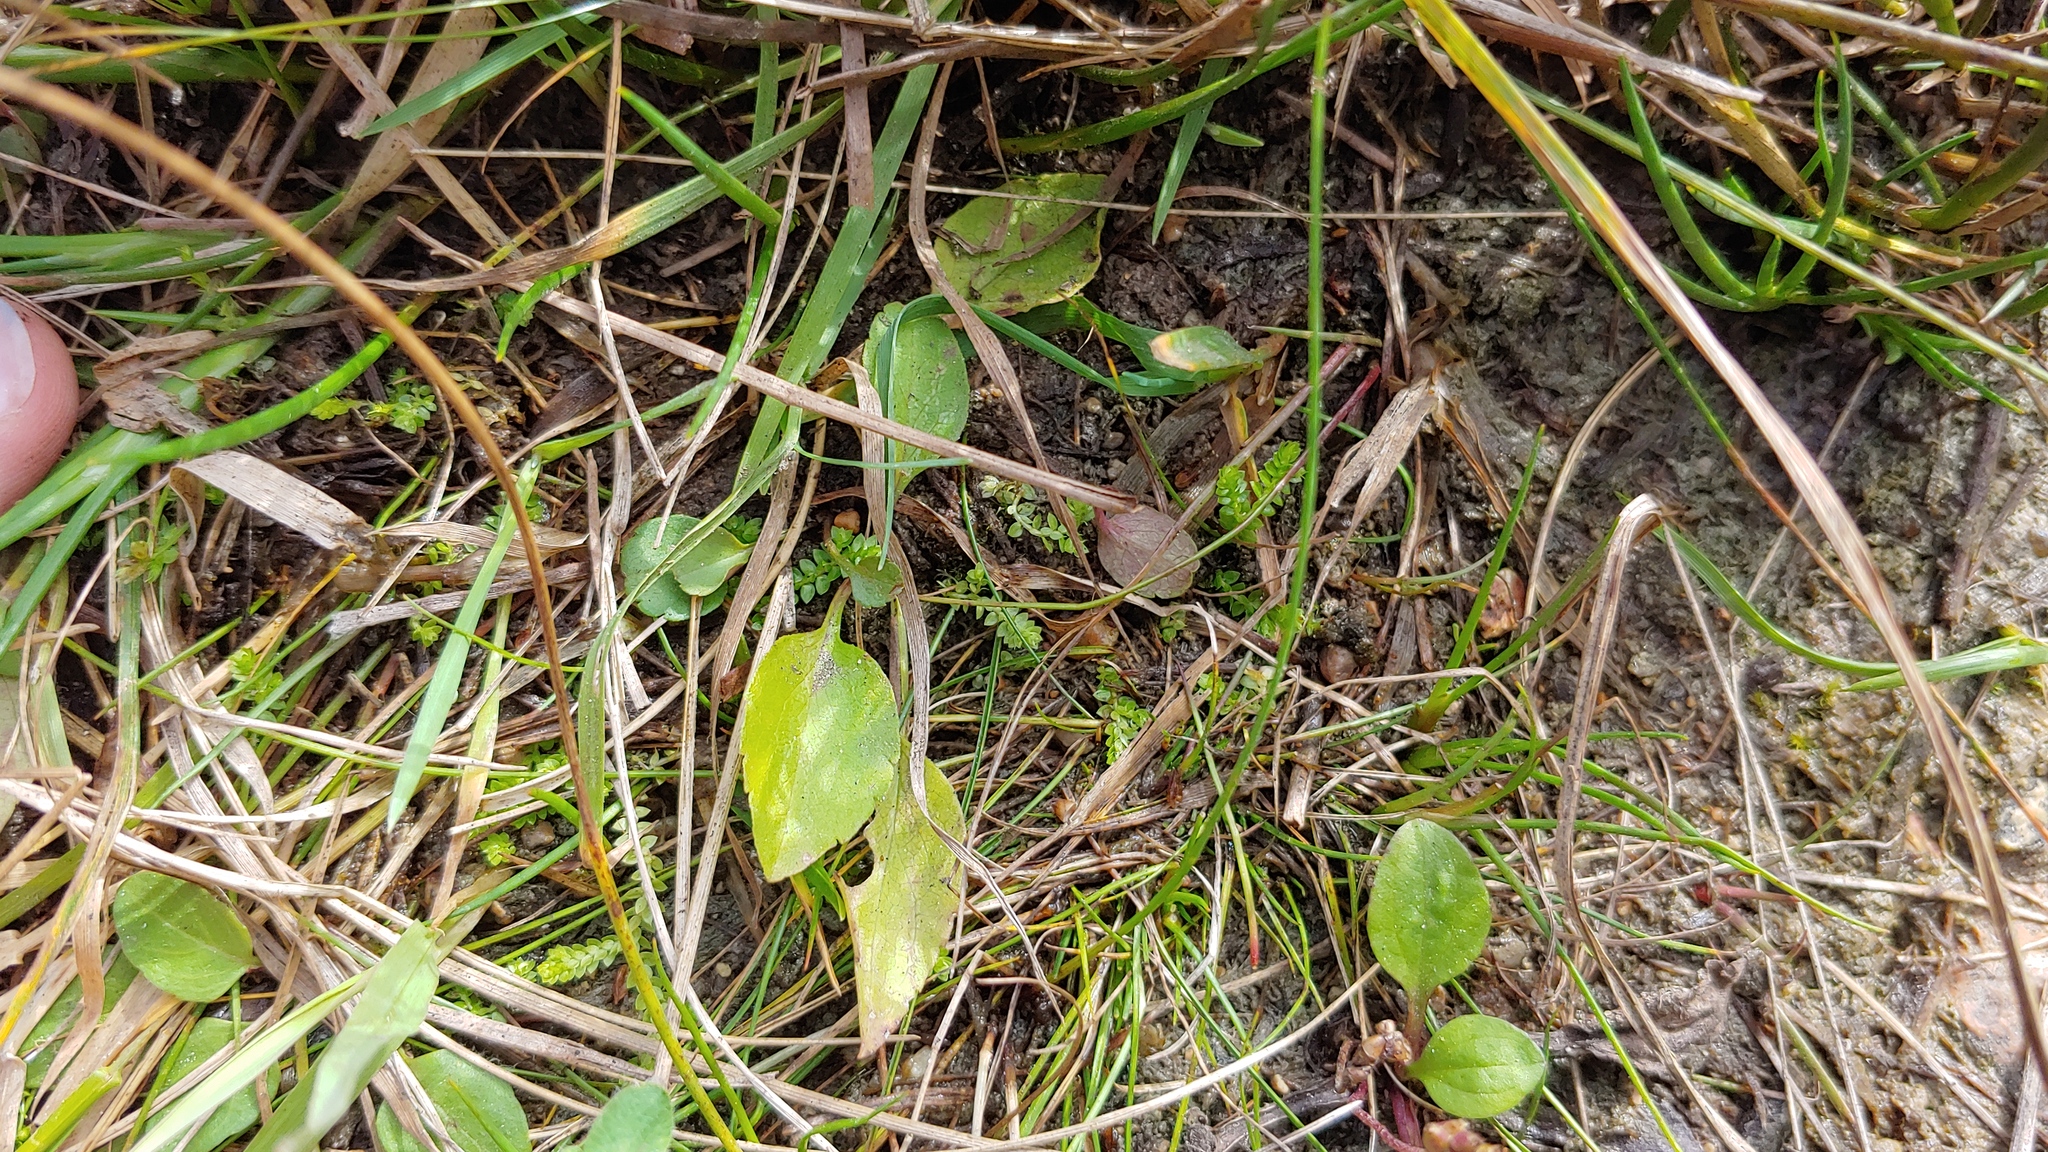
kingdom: Plantae
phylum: Tracheophyta
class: Lycopodiopsida
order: Selaginellales
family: Selaginellaceae
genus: Selaginella
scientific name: Selaginella eclipes
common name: Buck's meadow spikemoss
